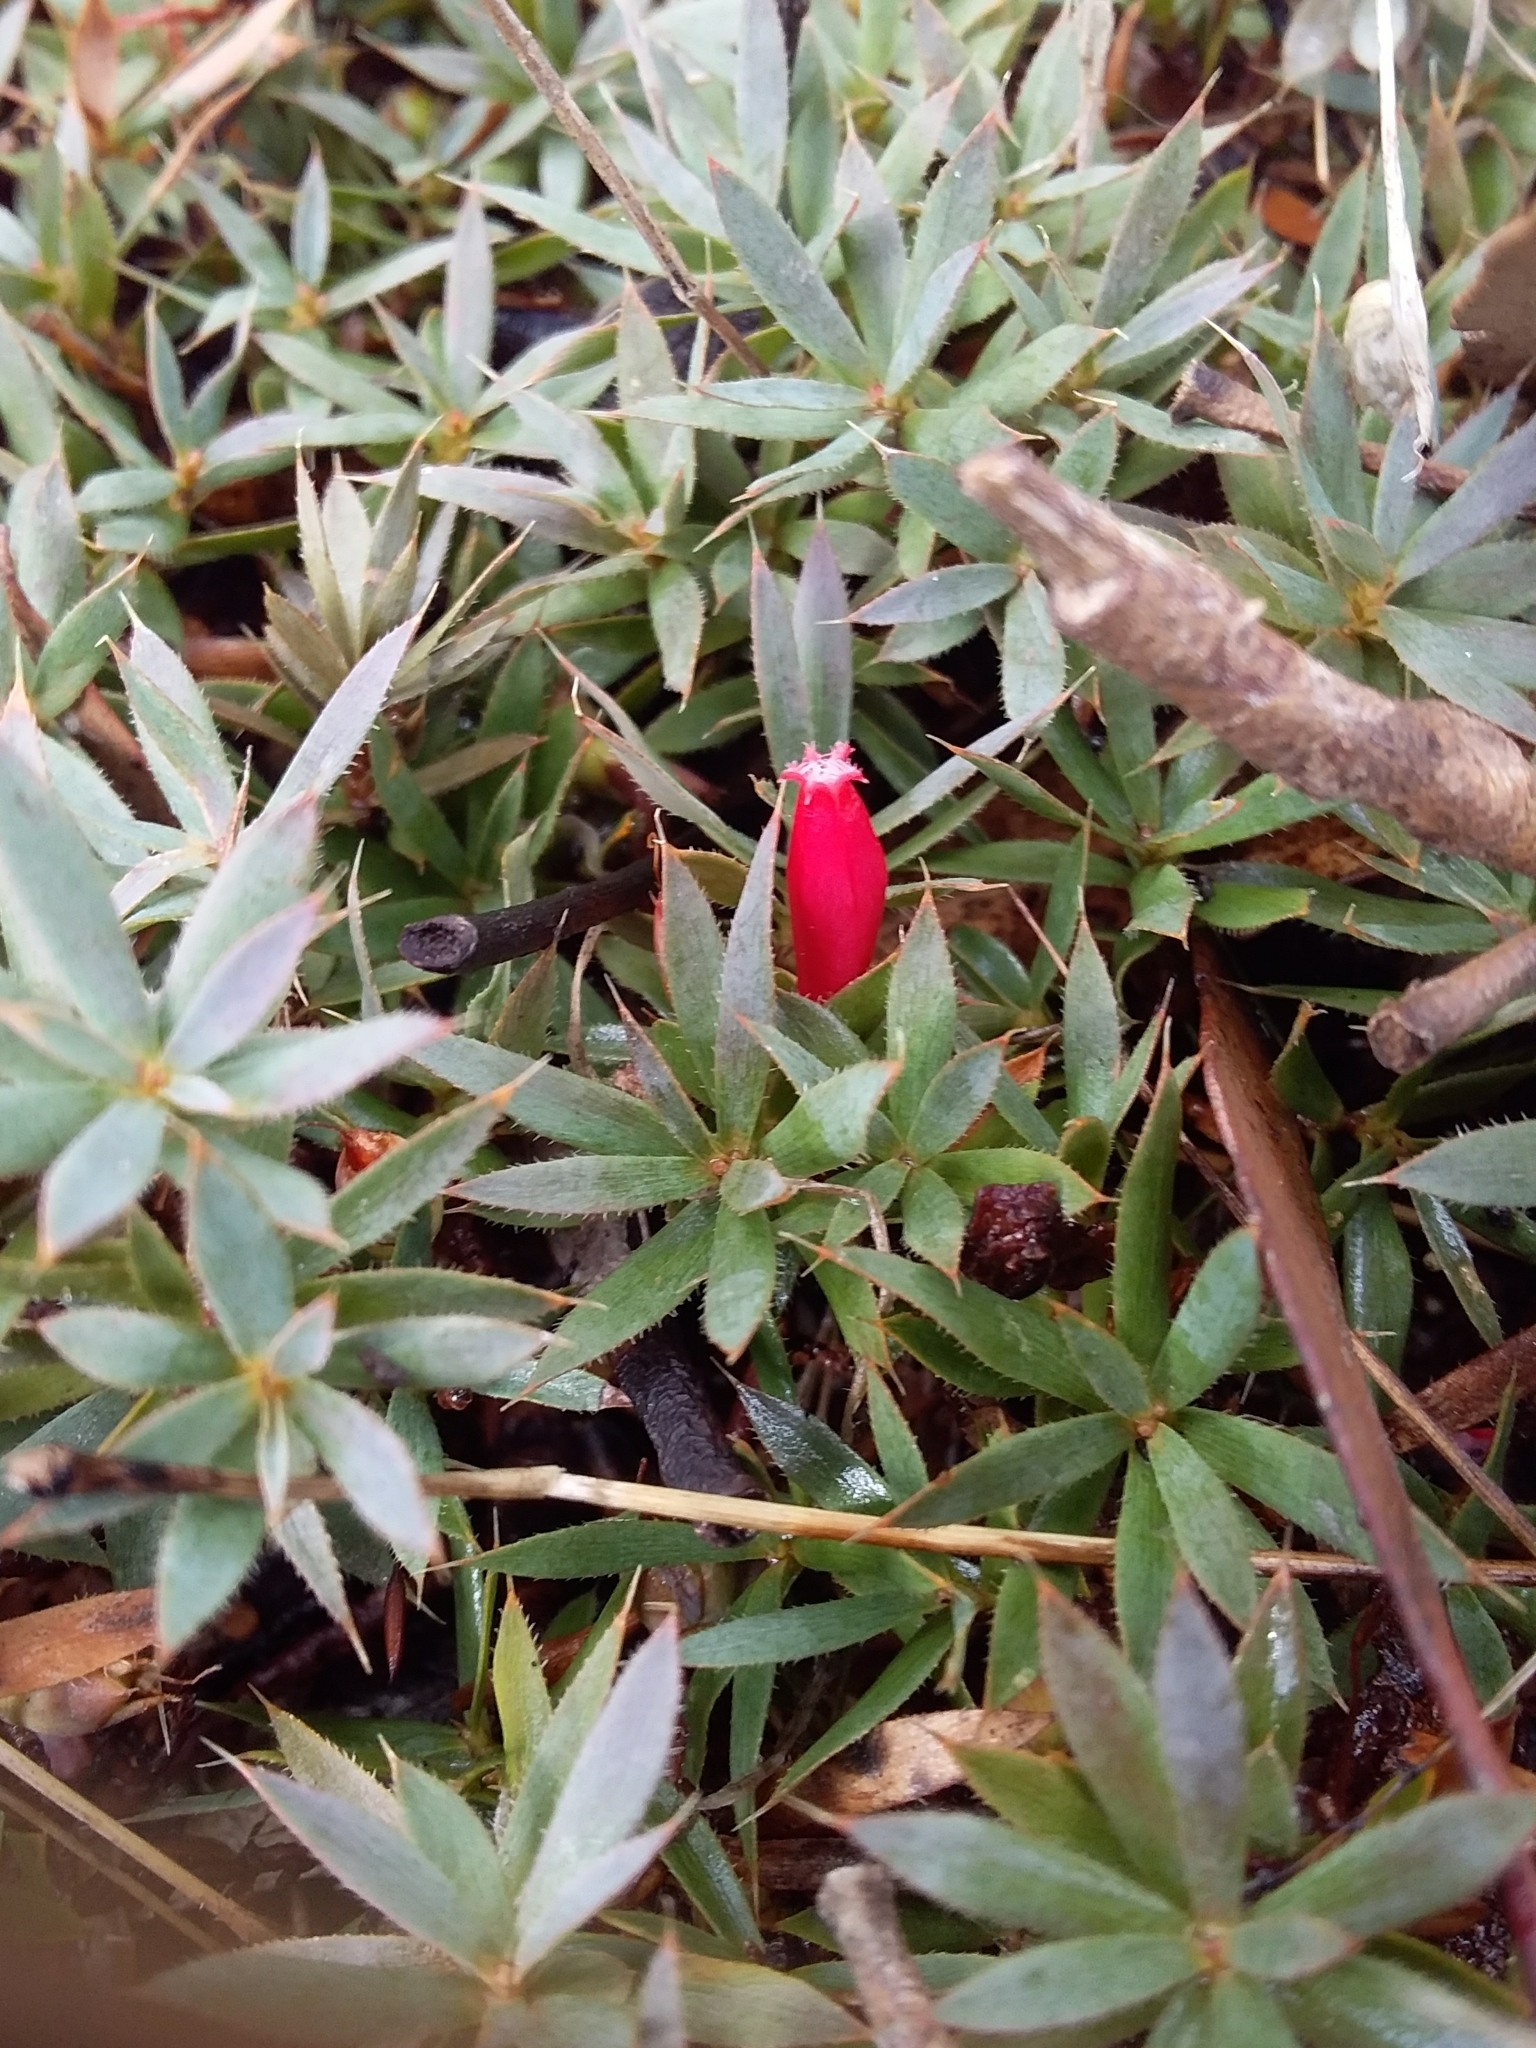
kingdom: Plantae
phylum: Tracheophyta
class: Magnoliopsida
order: Ericales
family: Ericaceae
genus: Styphelia
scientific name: Styphelia humifusa
